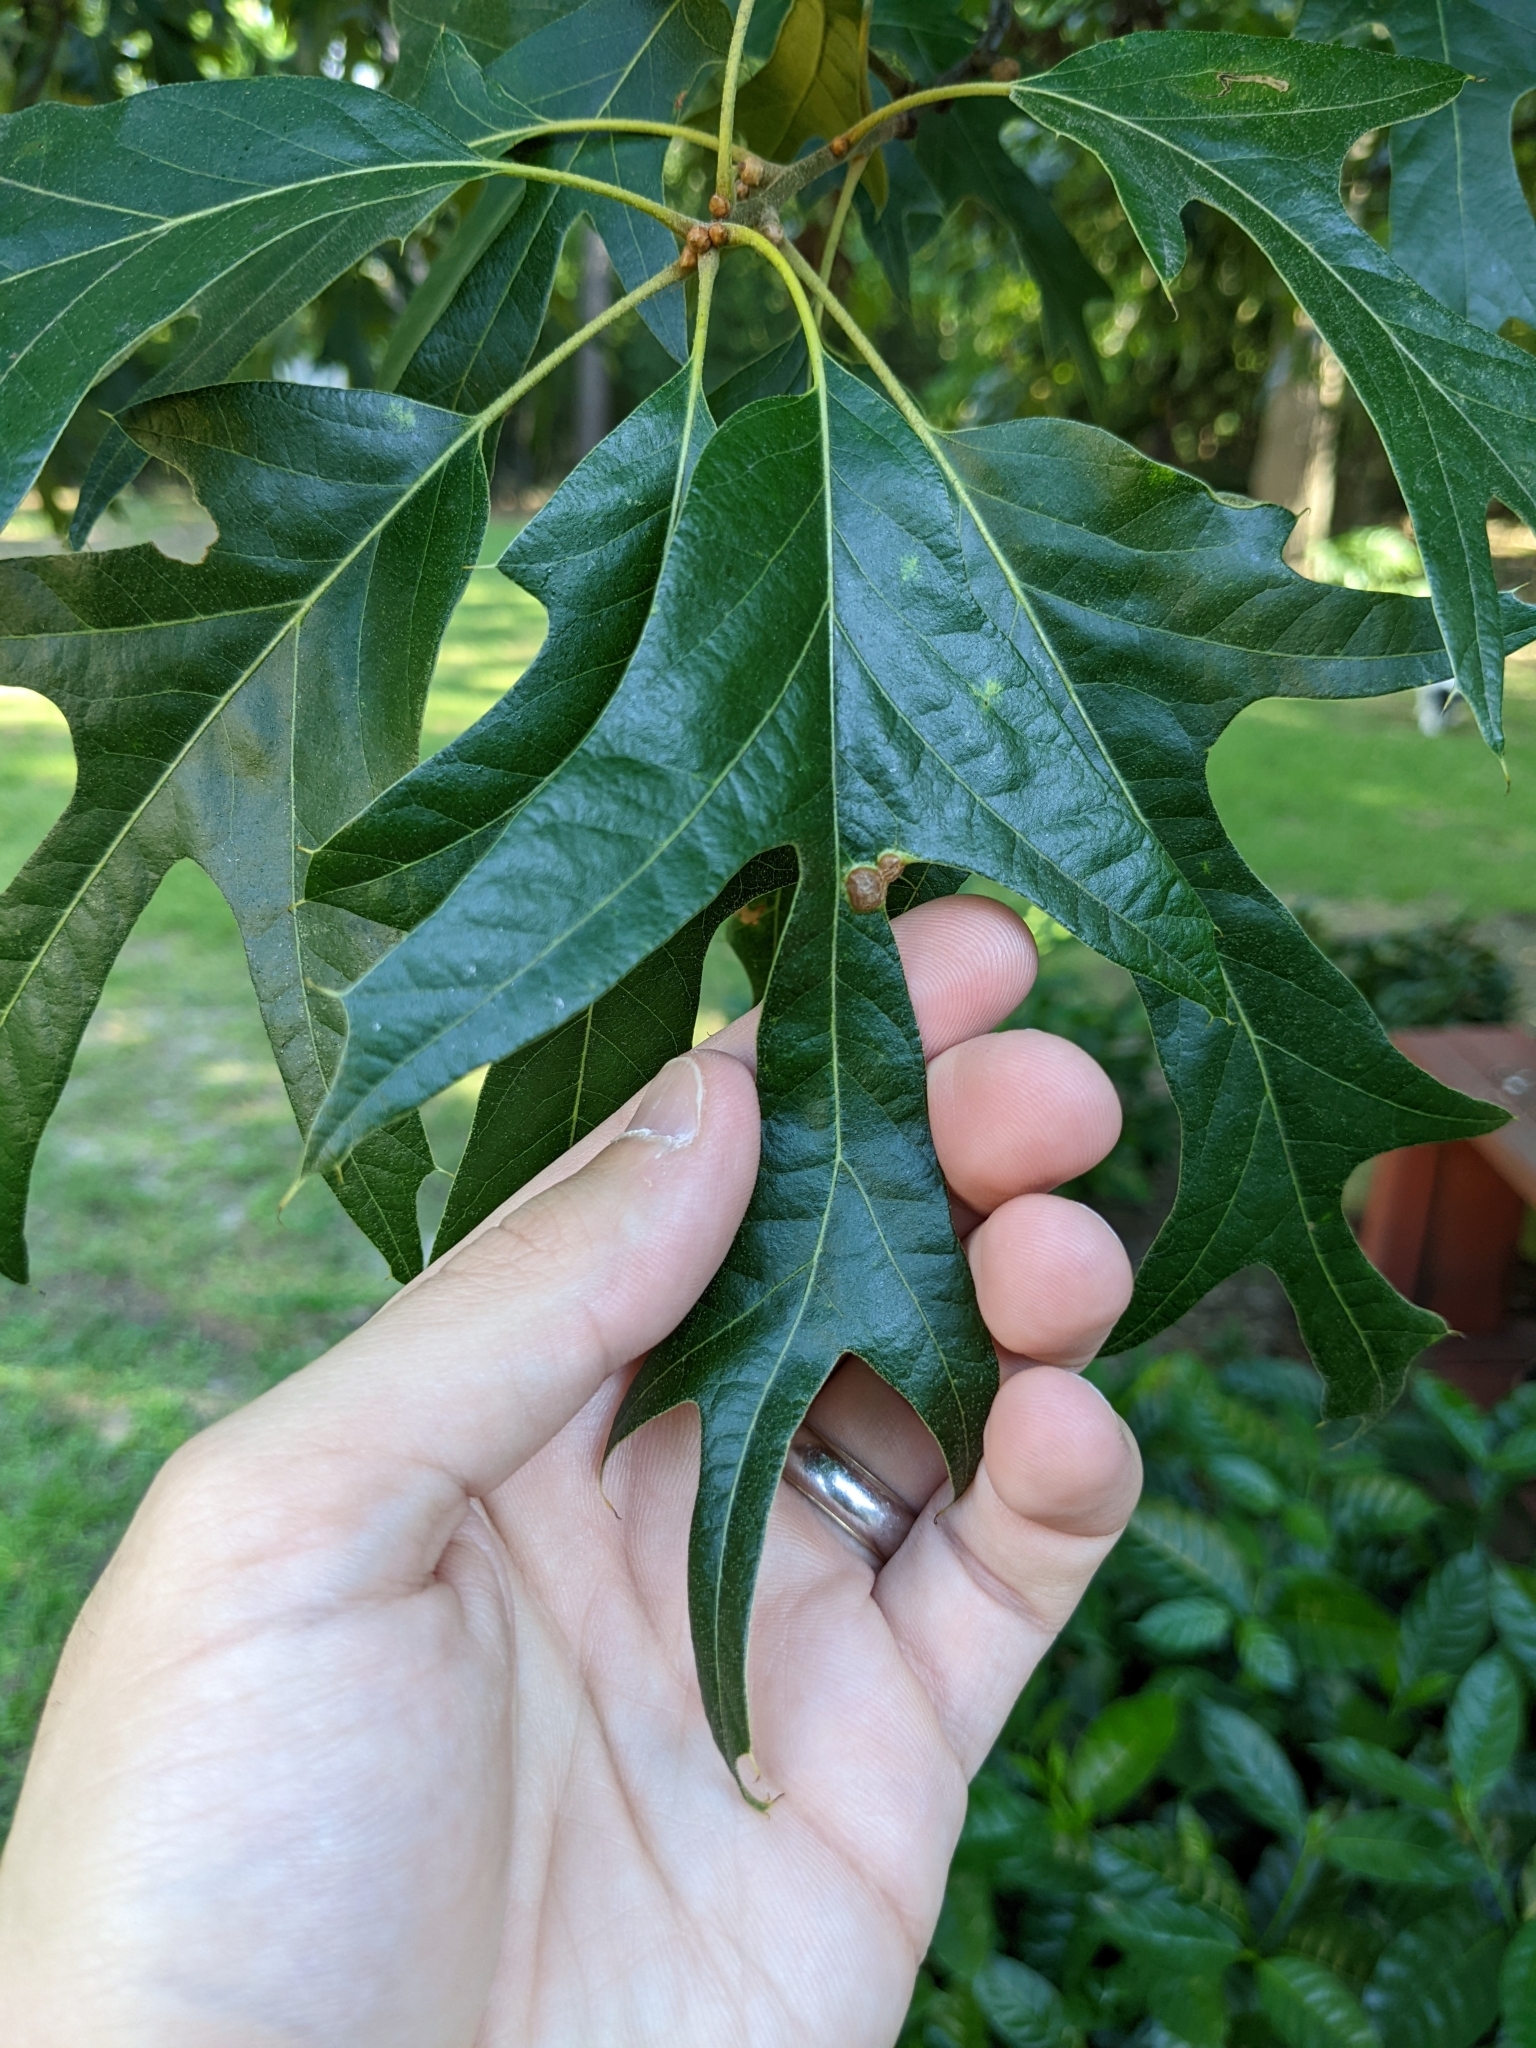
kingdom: Plantae
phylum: Tracheophyta
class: Magnoliopsida
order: Fagales
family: Fagaceae
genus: Quercus
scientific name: Quercus falcata
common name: Southern red oak
